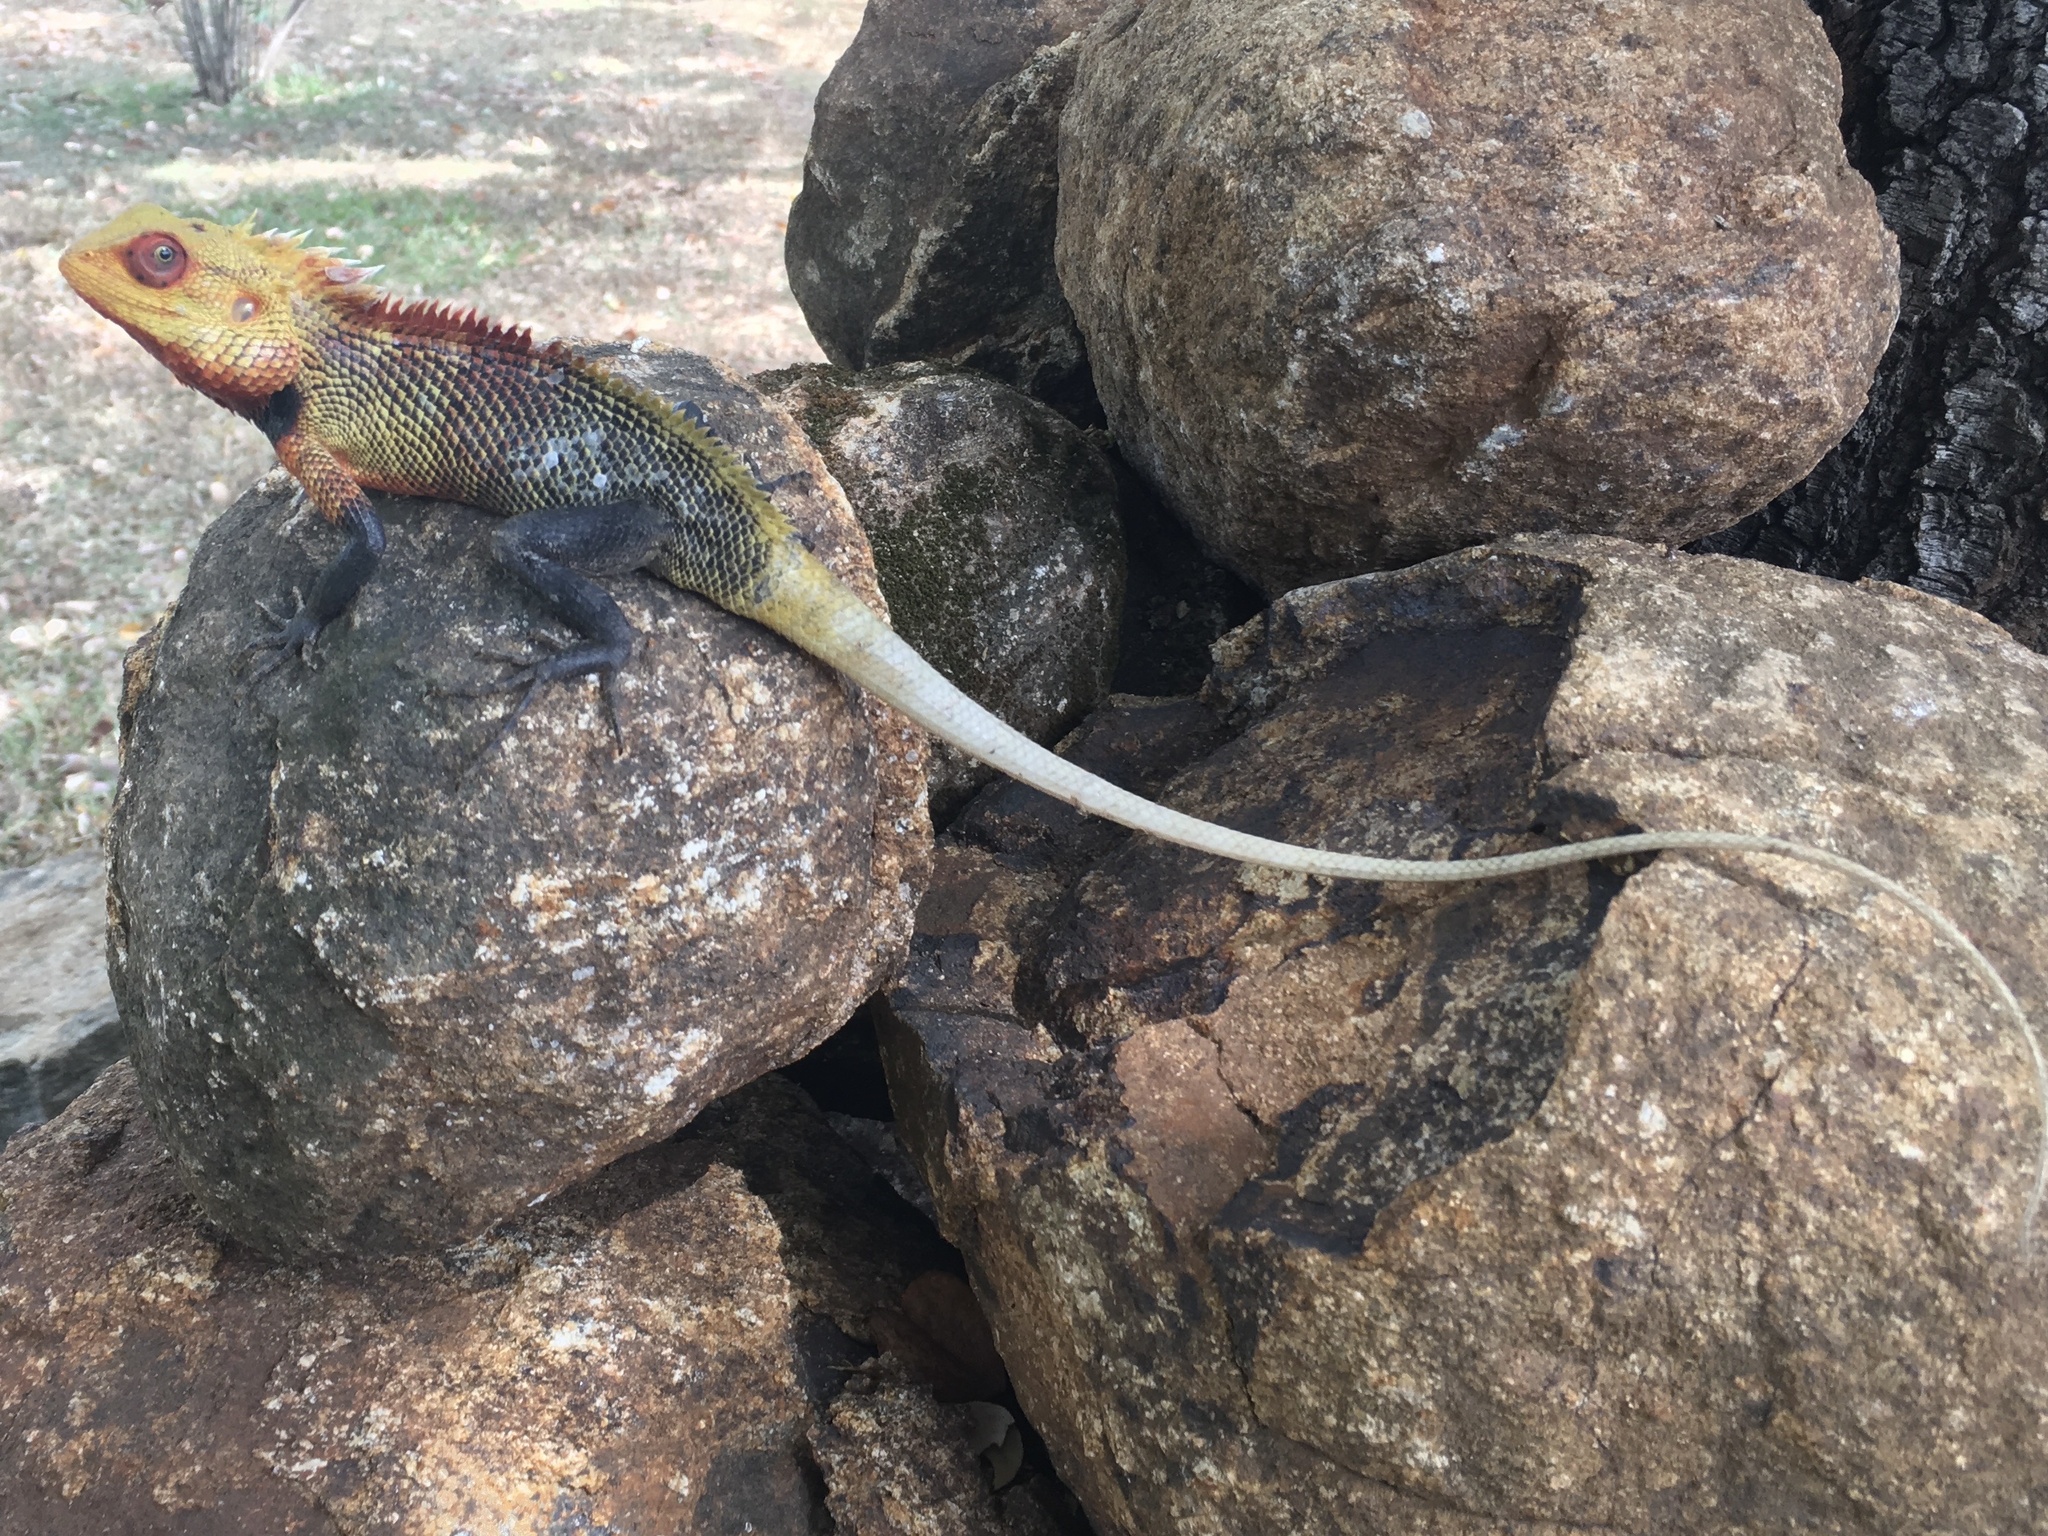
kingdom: Animalia
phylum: Chordata
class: Squamata
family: Agamidae
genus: Calotes
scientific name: Calotes versicolor
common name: Oriental garden lizard
